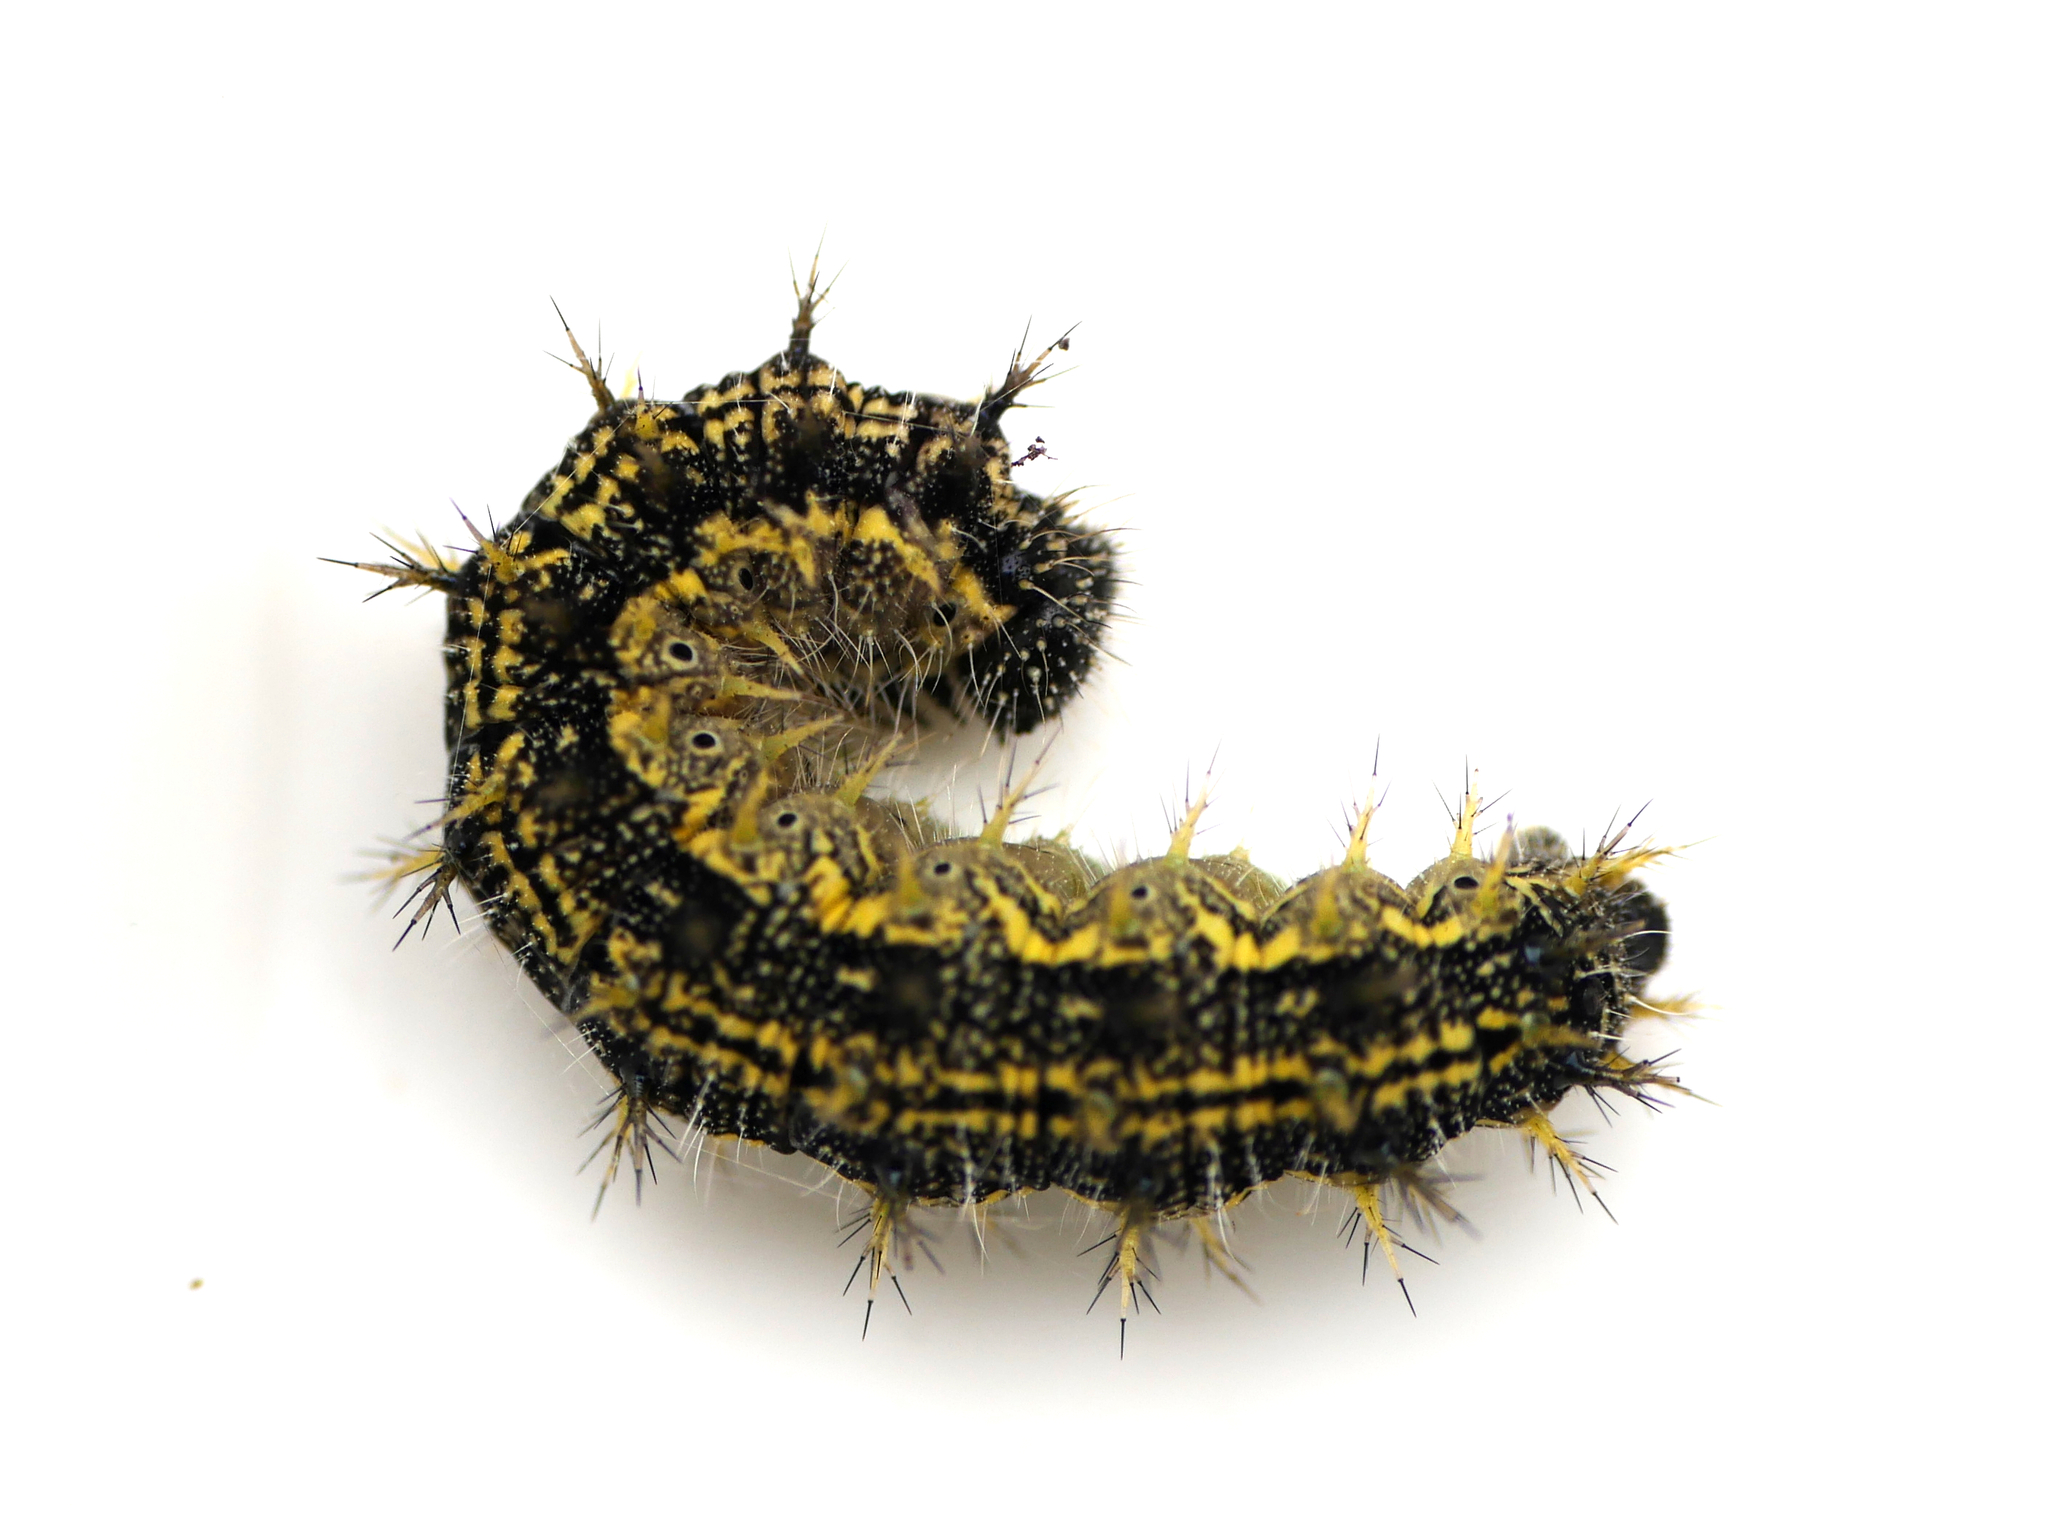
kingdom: Animalia
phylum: Arthropoda
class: Insecta
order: Lepidoptera
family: Nymphalidae
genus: Aglais
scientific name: Aglais urticae
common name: Small tortoiseshell
